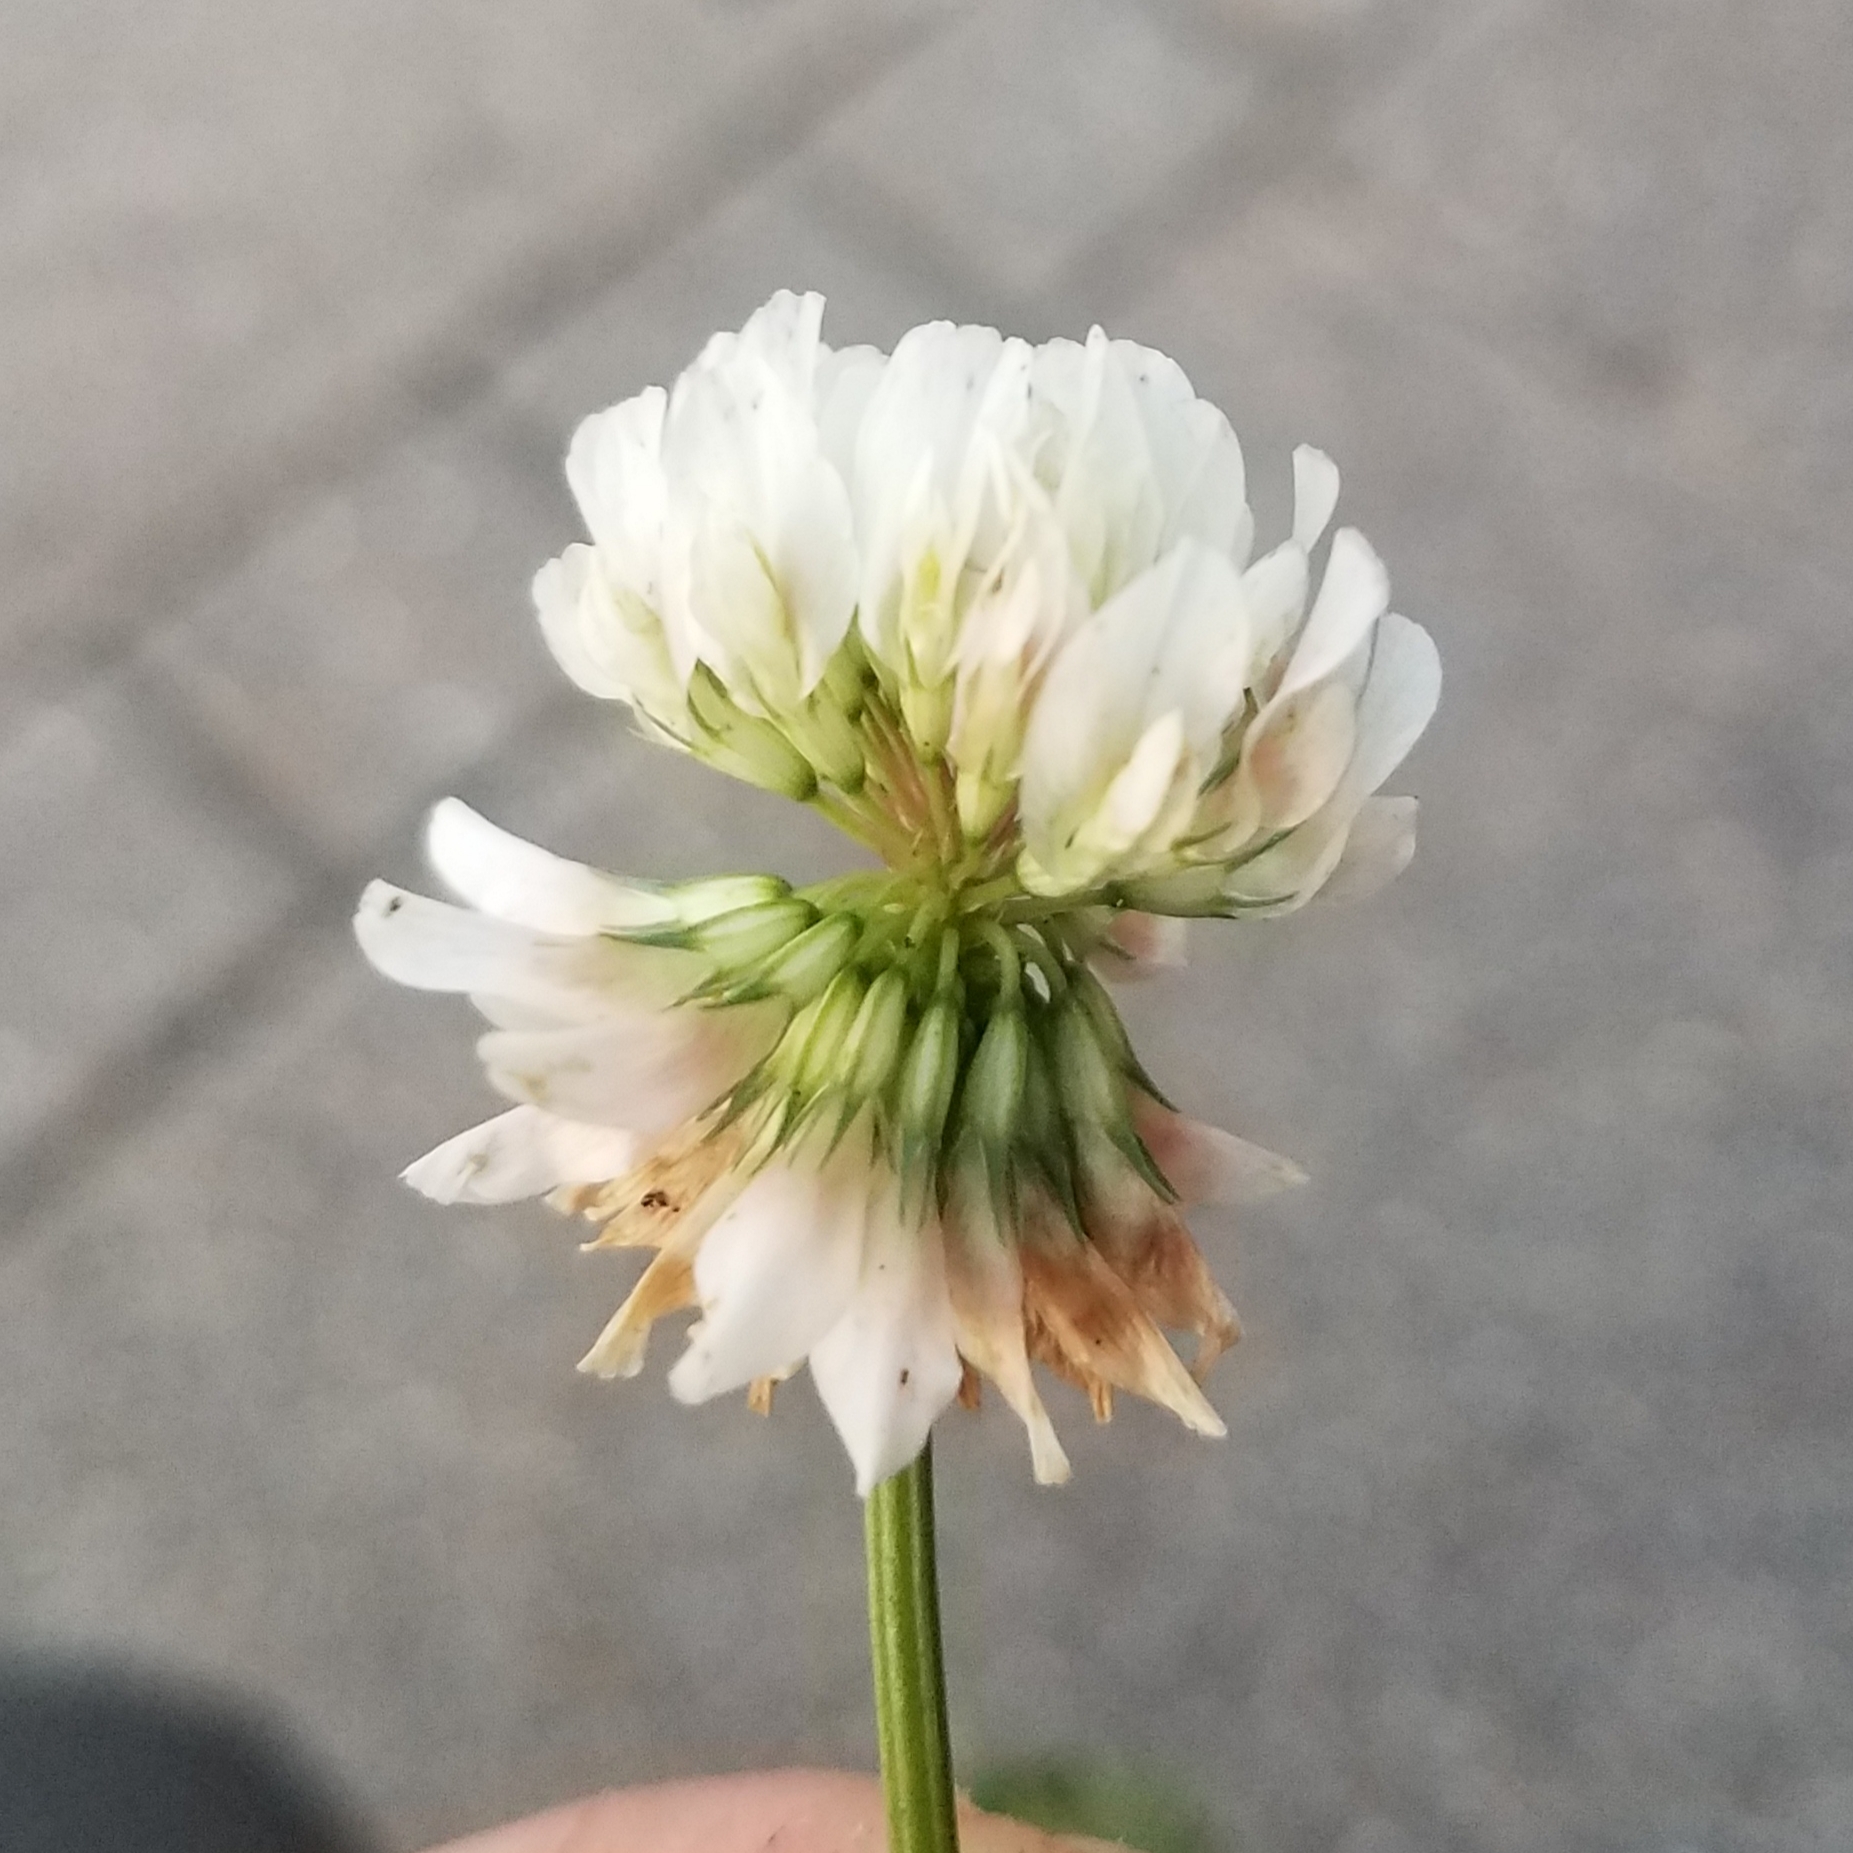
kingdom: Plantae
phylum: Tracheophyta
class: Magnoliopsida
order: Fabales
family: Fabaceae
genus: Trifolium
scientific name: Trifolium repens
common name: White clover
